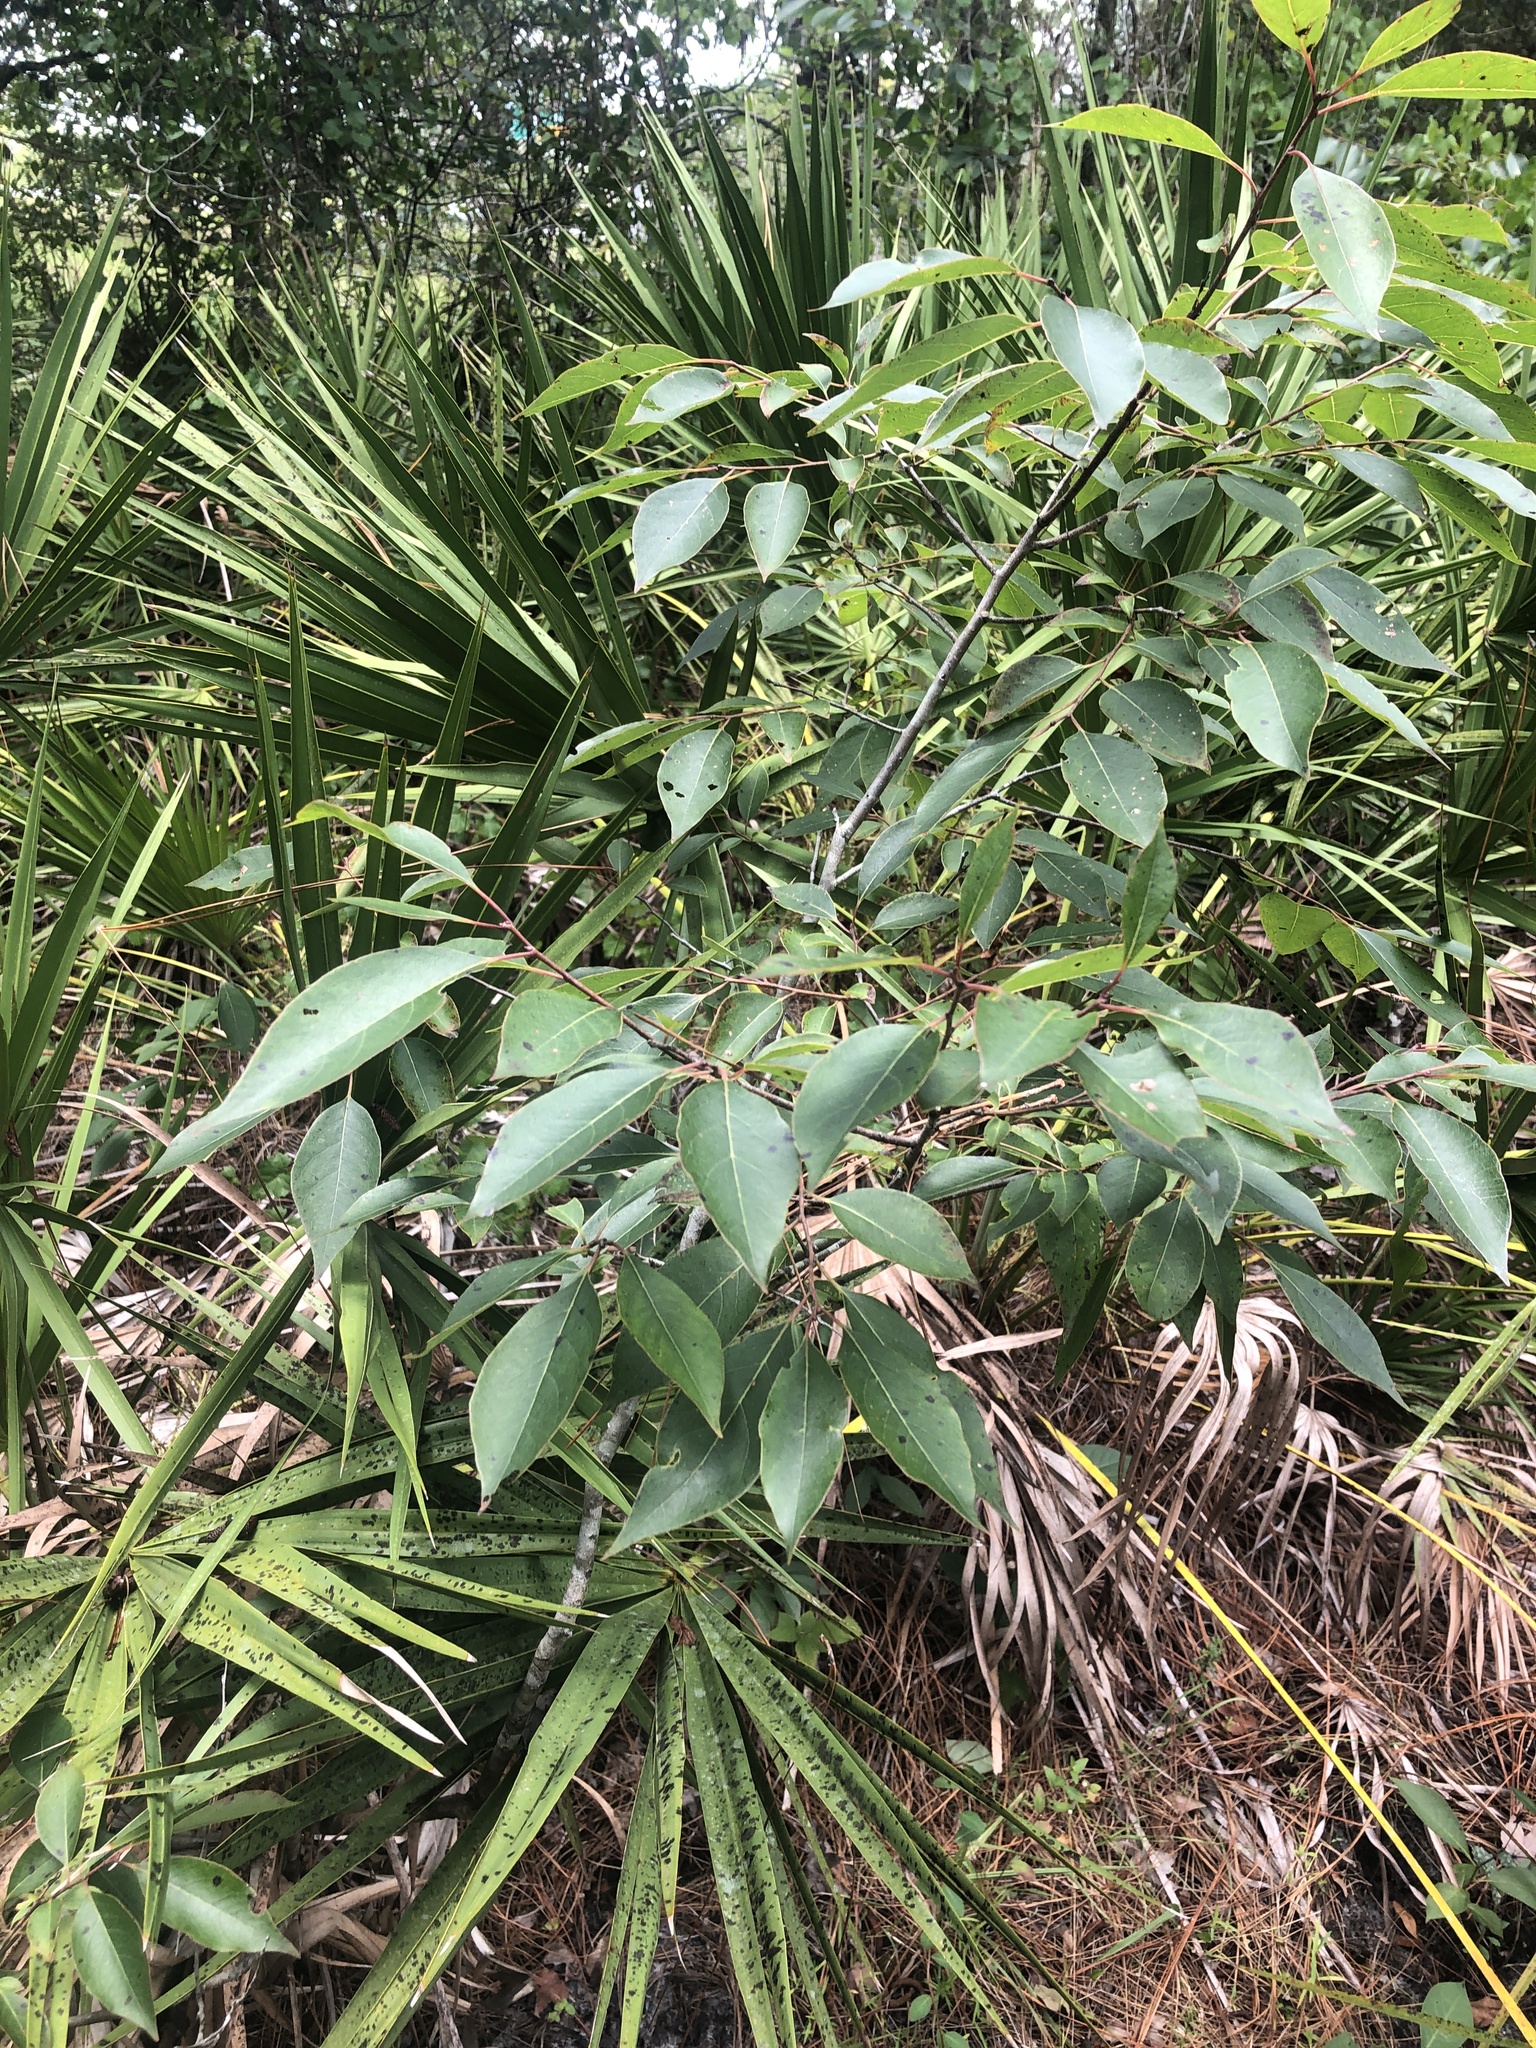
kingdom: Plantae
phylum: Tracheophyta
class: Magnoliopsida
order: Ericales
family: Ebenaceae
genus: Diospyros
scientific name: Diospyros virginiana
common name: Persimmon
